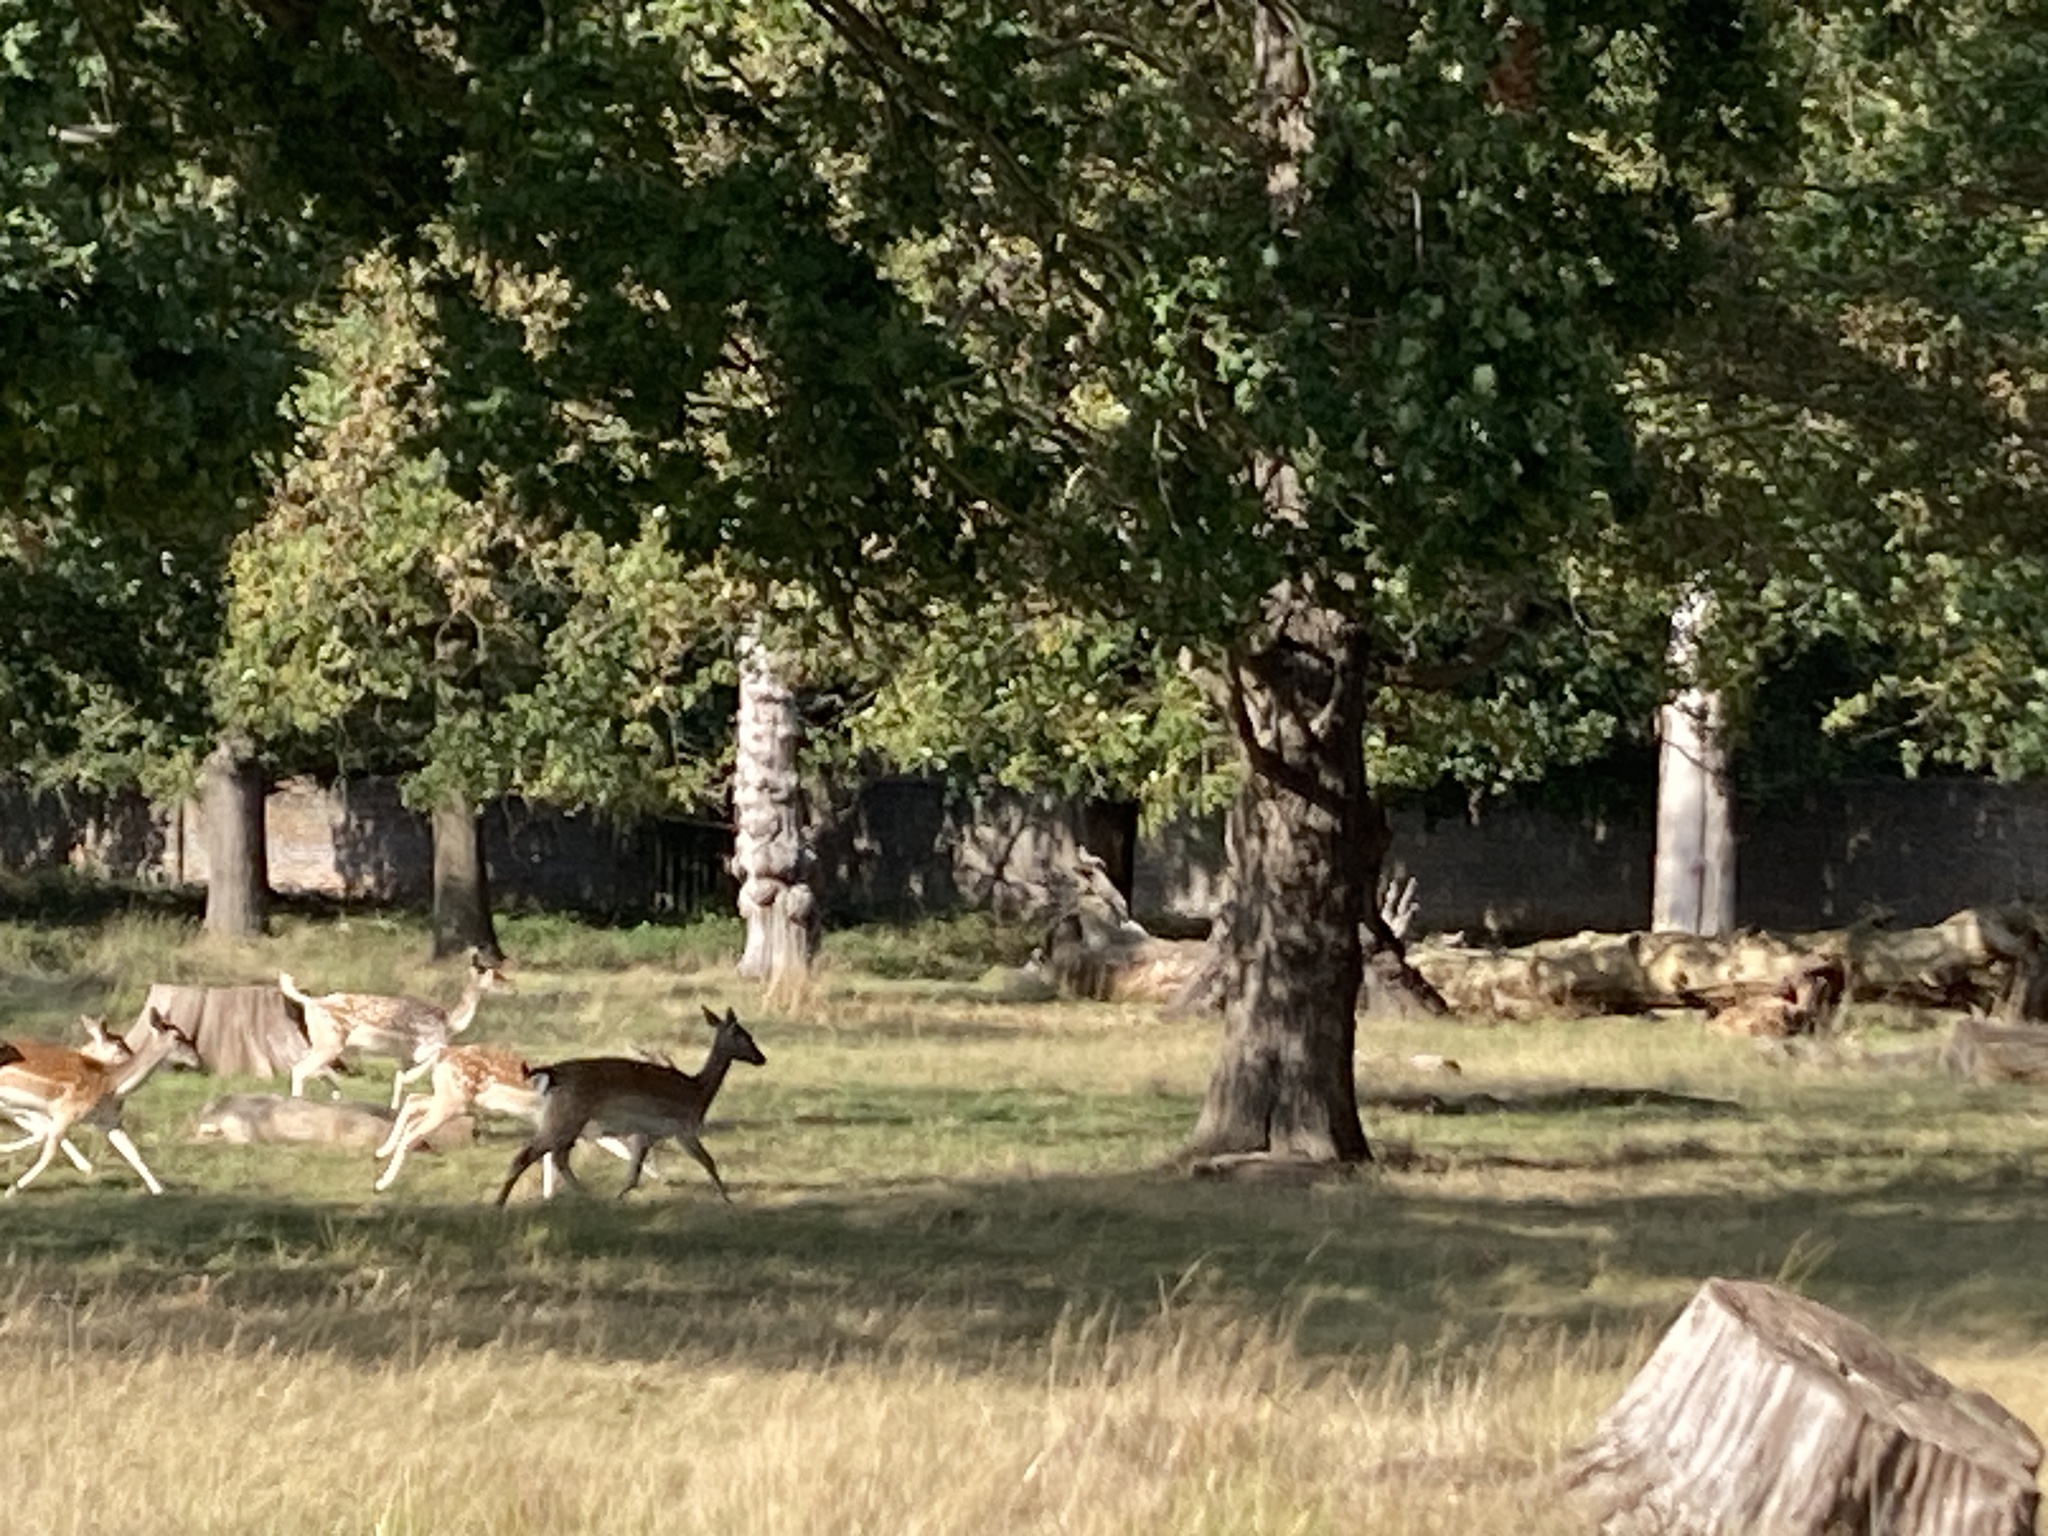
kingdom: Animalia
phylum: Chordata
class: Mammalia
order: Artiodactyla
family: Cervidae
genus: Dama
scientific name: Dama dama
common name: Fallow deer
